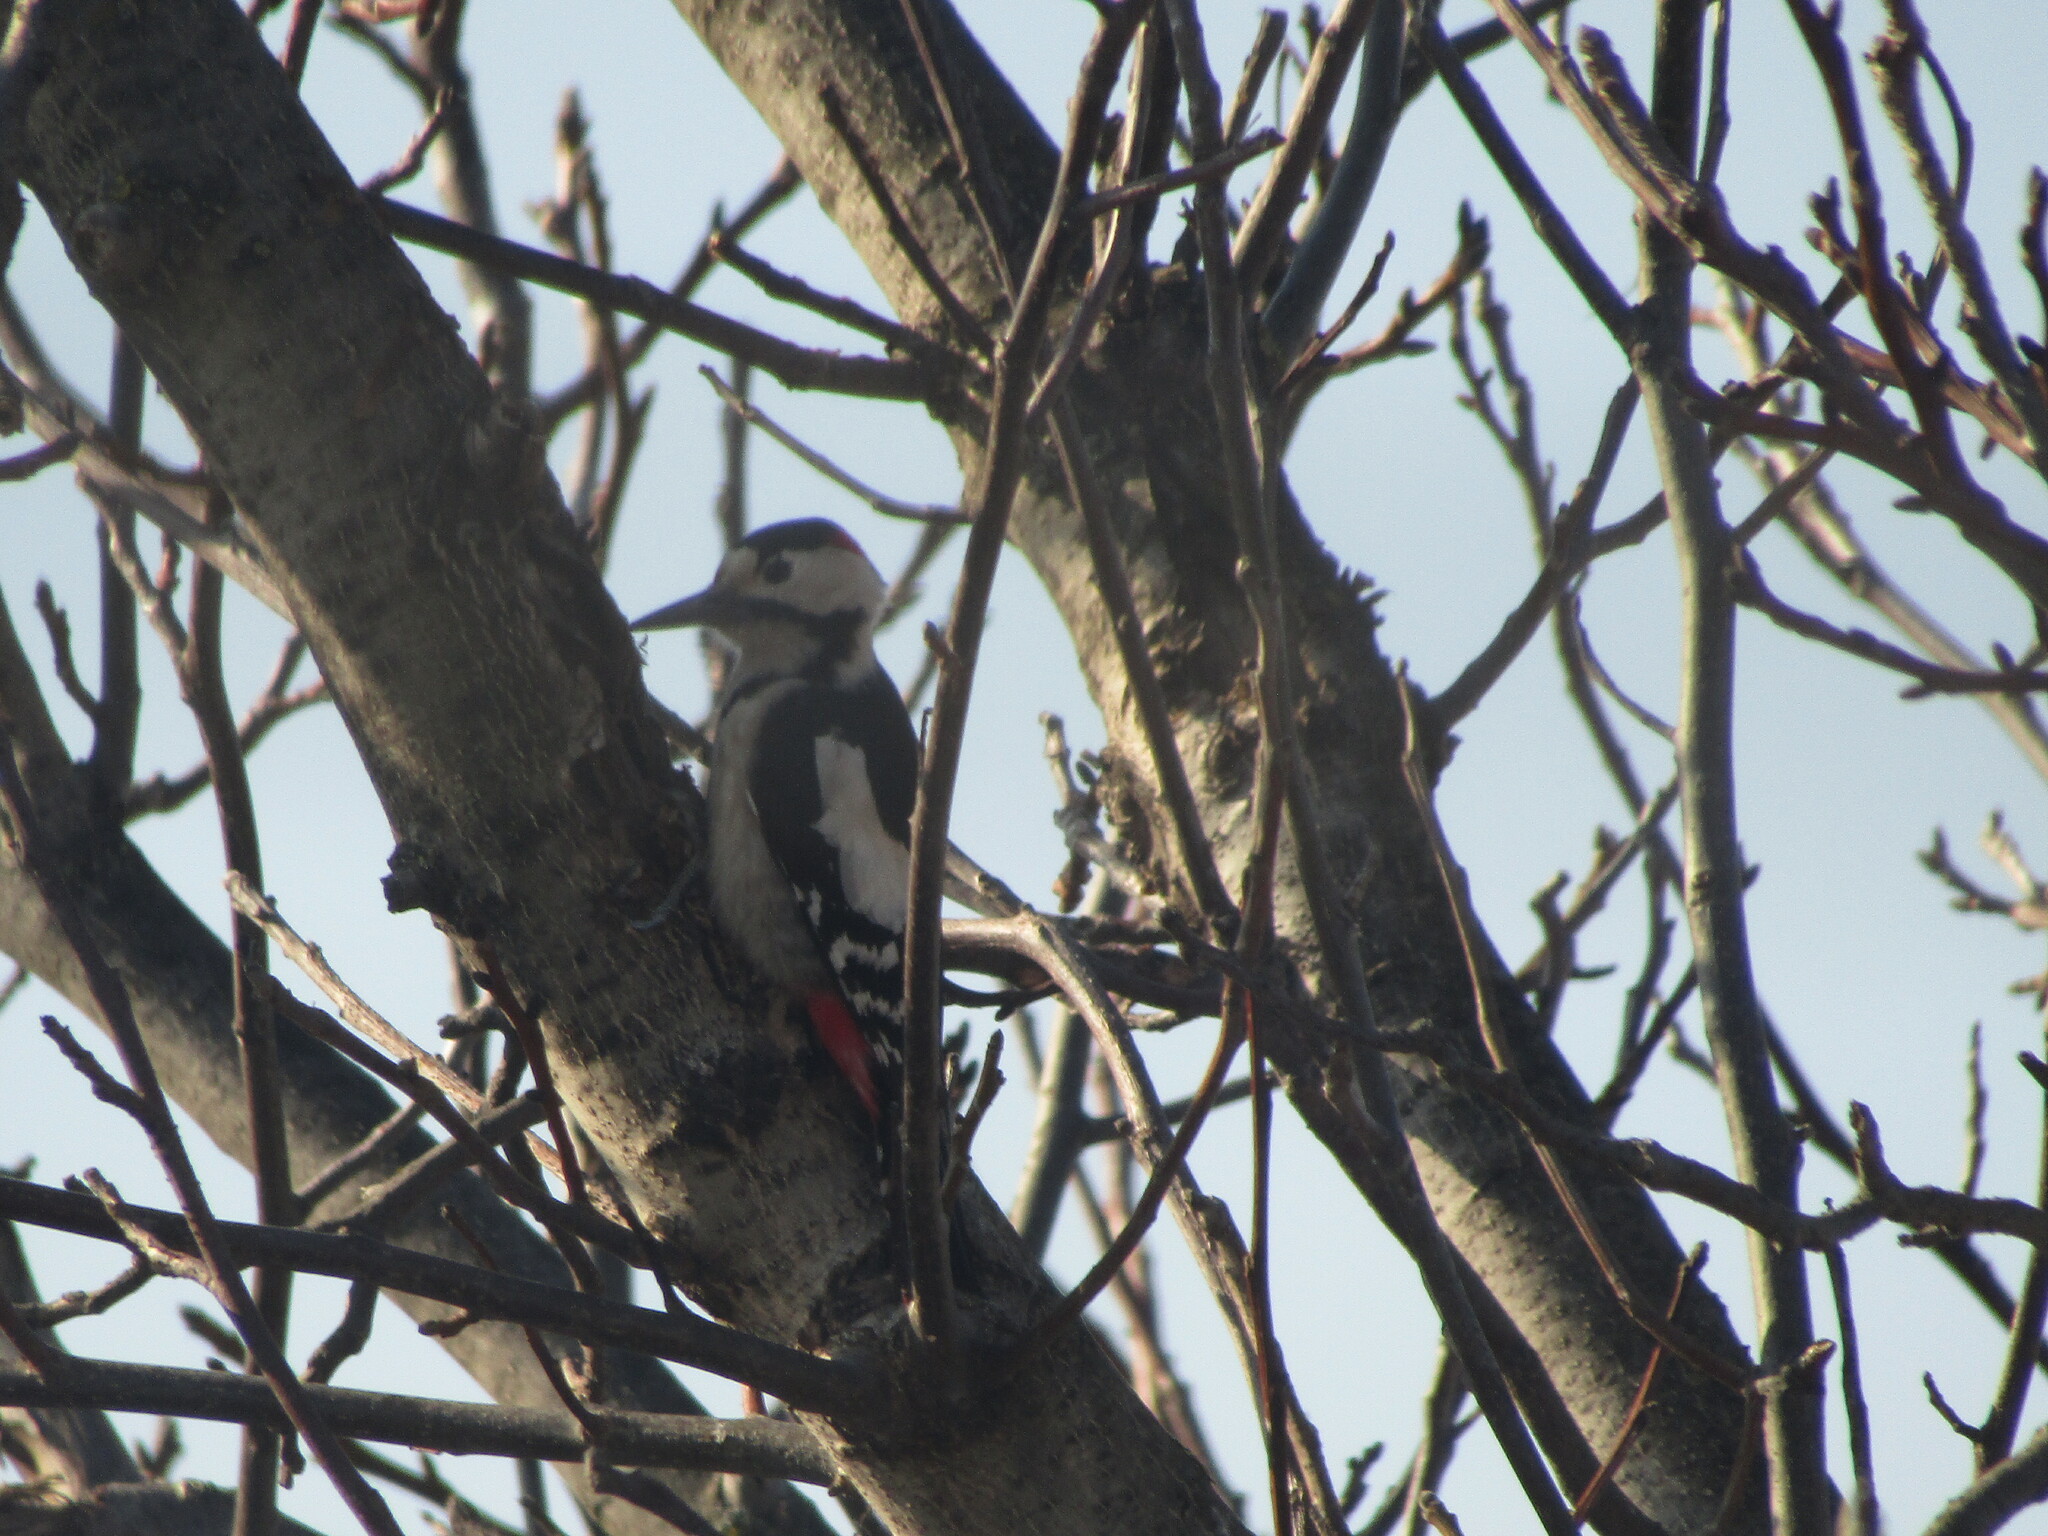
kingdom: Animalia
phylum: Chordata
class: Aves
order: Piciformes
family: Picidae
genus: Dendrocopos
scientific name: Dendrocopos syriacus
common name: Syrian woodpecker
